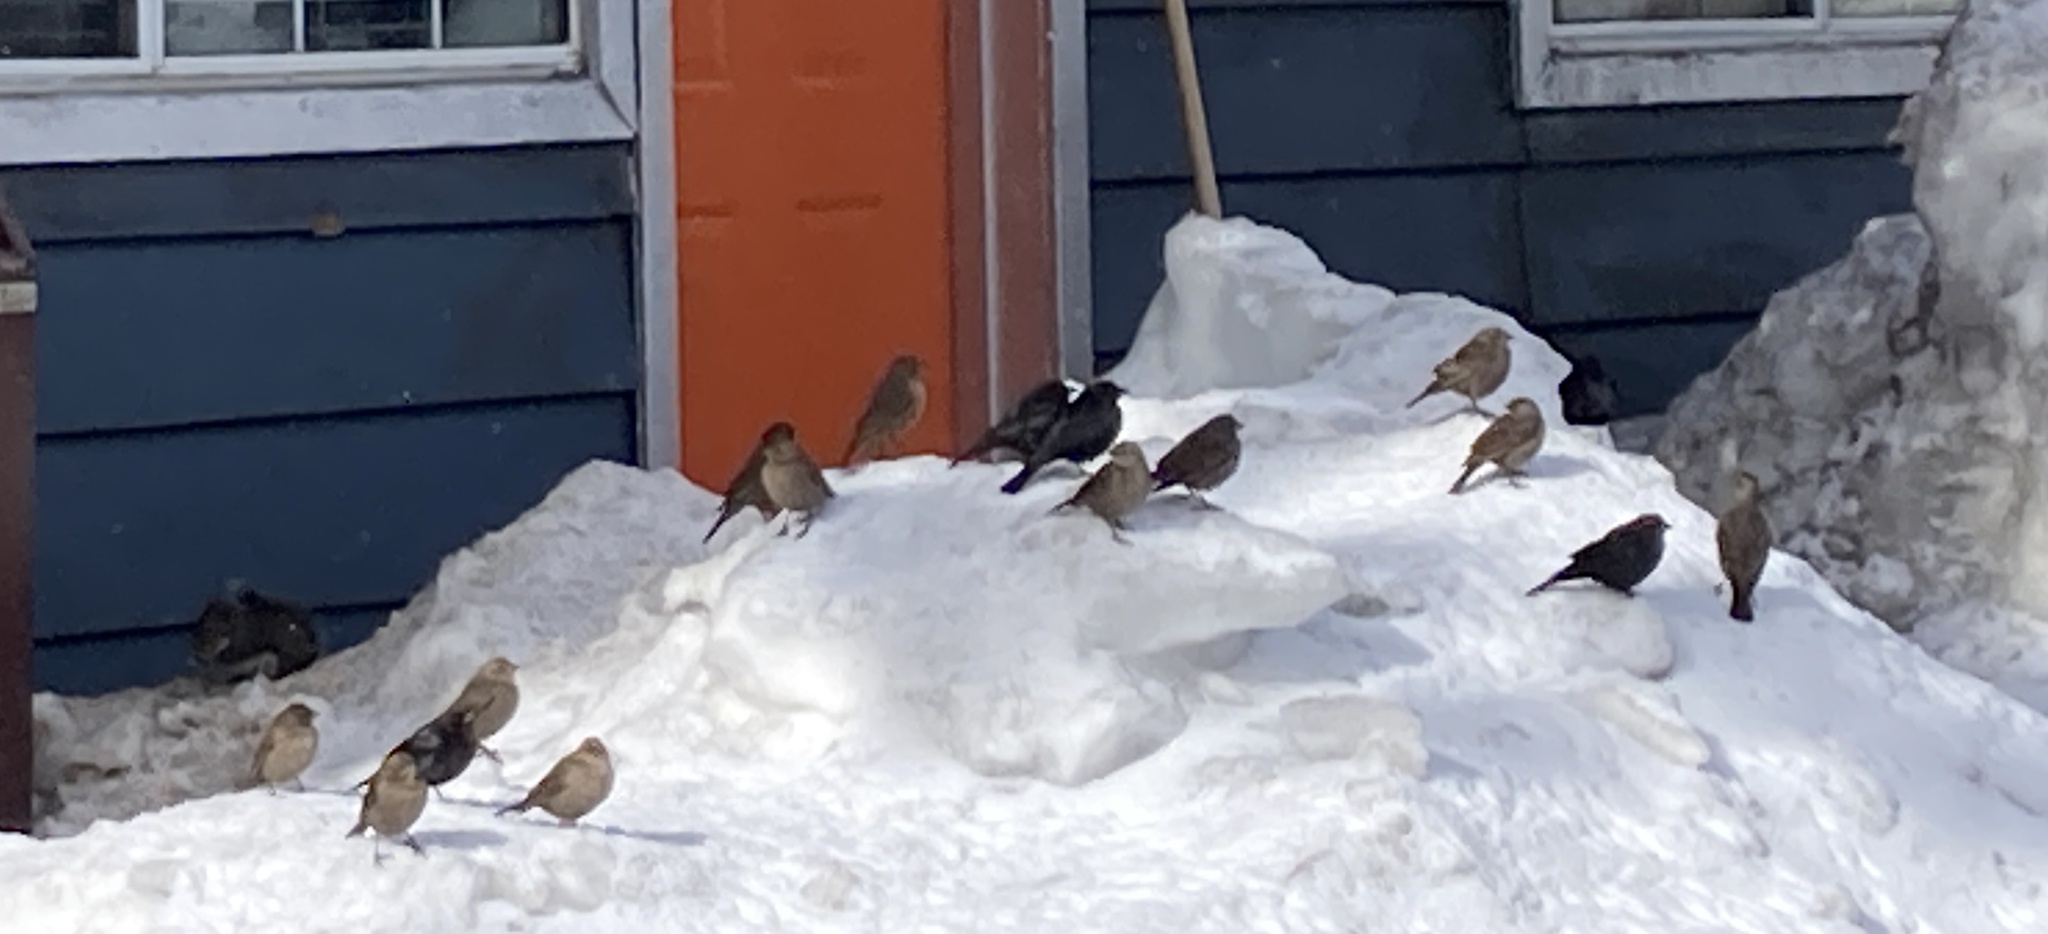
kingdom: Animalia
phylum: Chordata
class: Aves
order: Passeriformes
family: Icteridae
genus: Molothrus
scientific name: Molothrus ater
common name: Brown-headed cowbird
